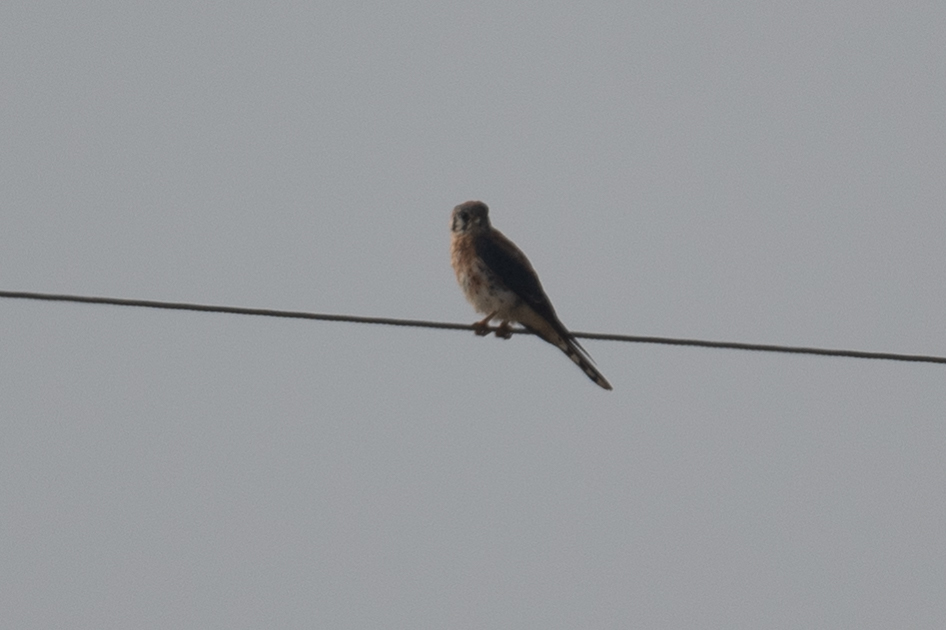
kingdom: Animalia
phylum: Chordata
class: Aves
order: Falconiformes
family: Falconidae
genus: Falco
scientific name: Falco sparverius
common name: American kestrel
